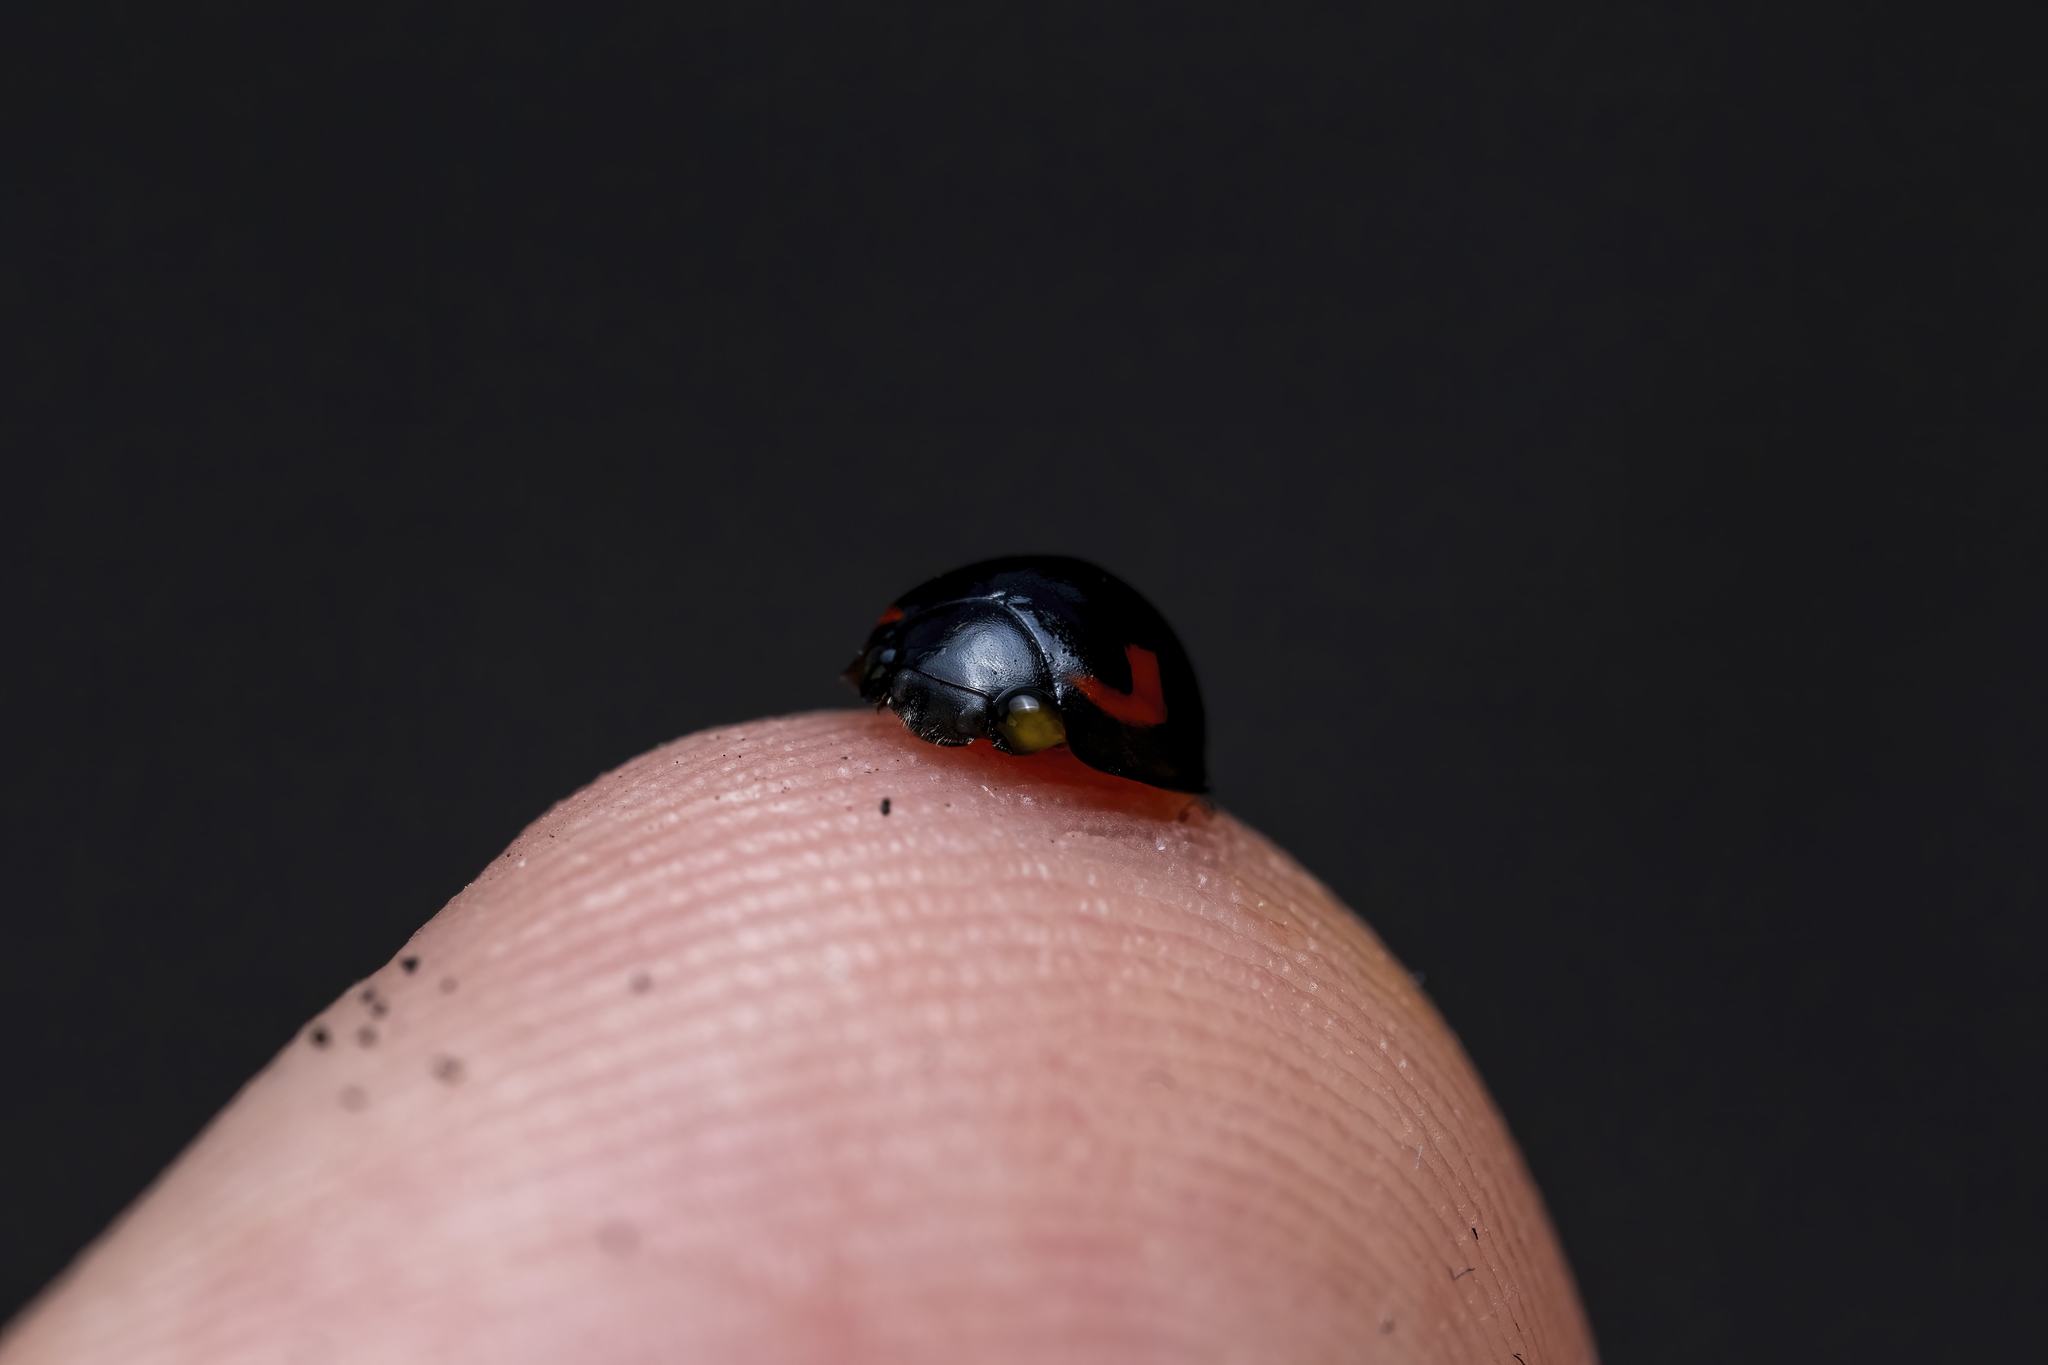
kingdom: Animalia
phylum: Arthropoda
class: Insecta
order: Coleoptera
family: Coccinellidae
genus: Brumus
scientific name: Brumus quadripustulatus
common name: Ladybird beetle
